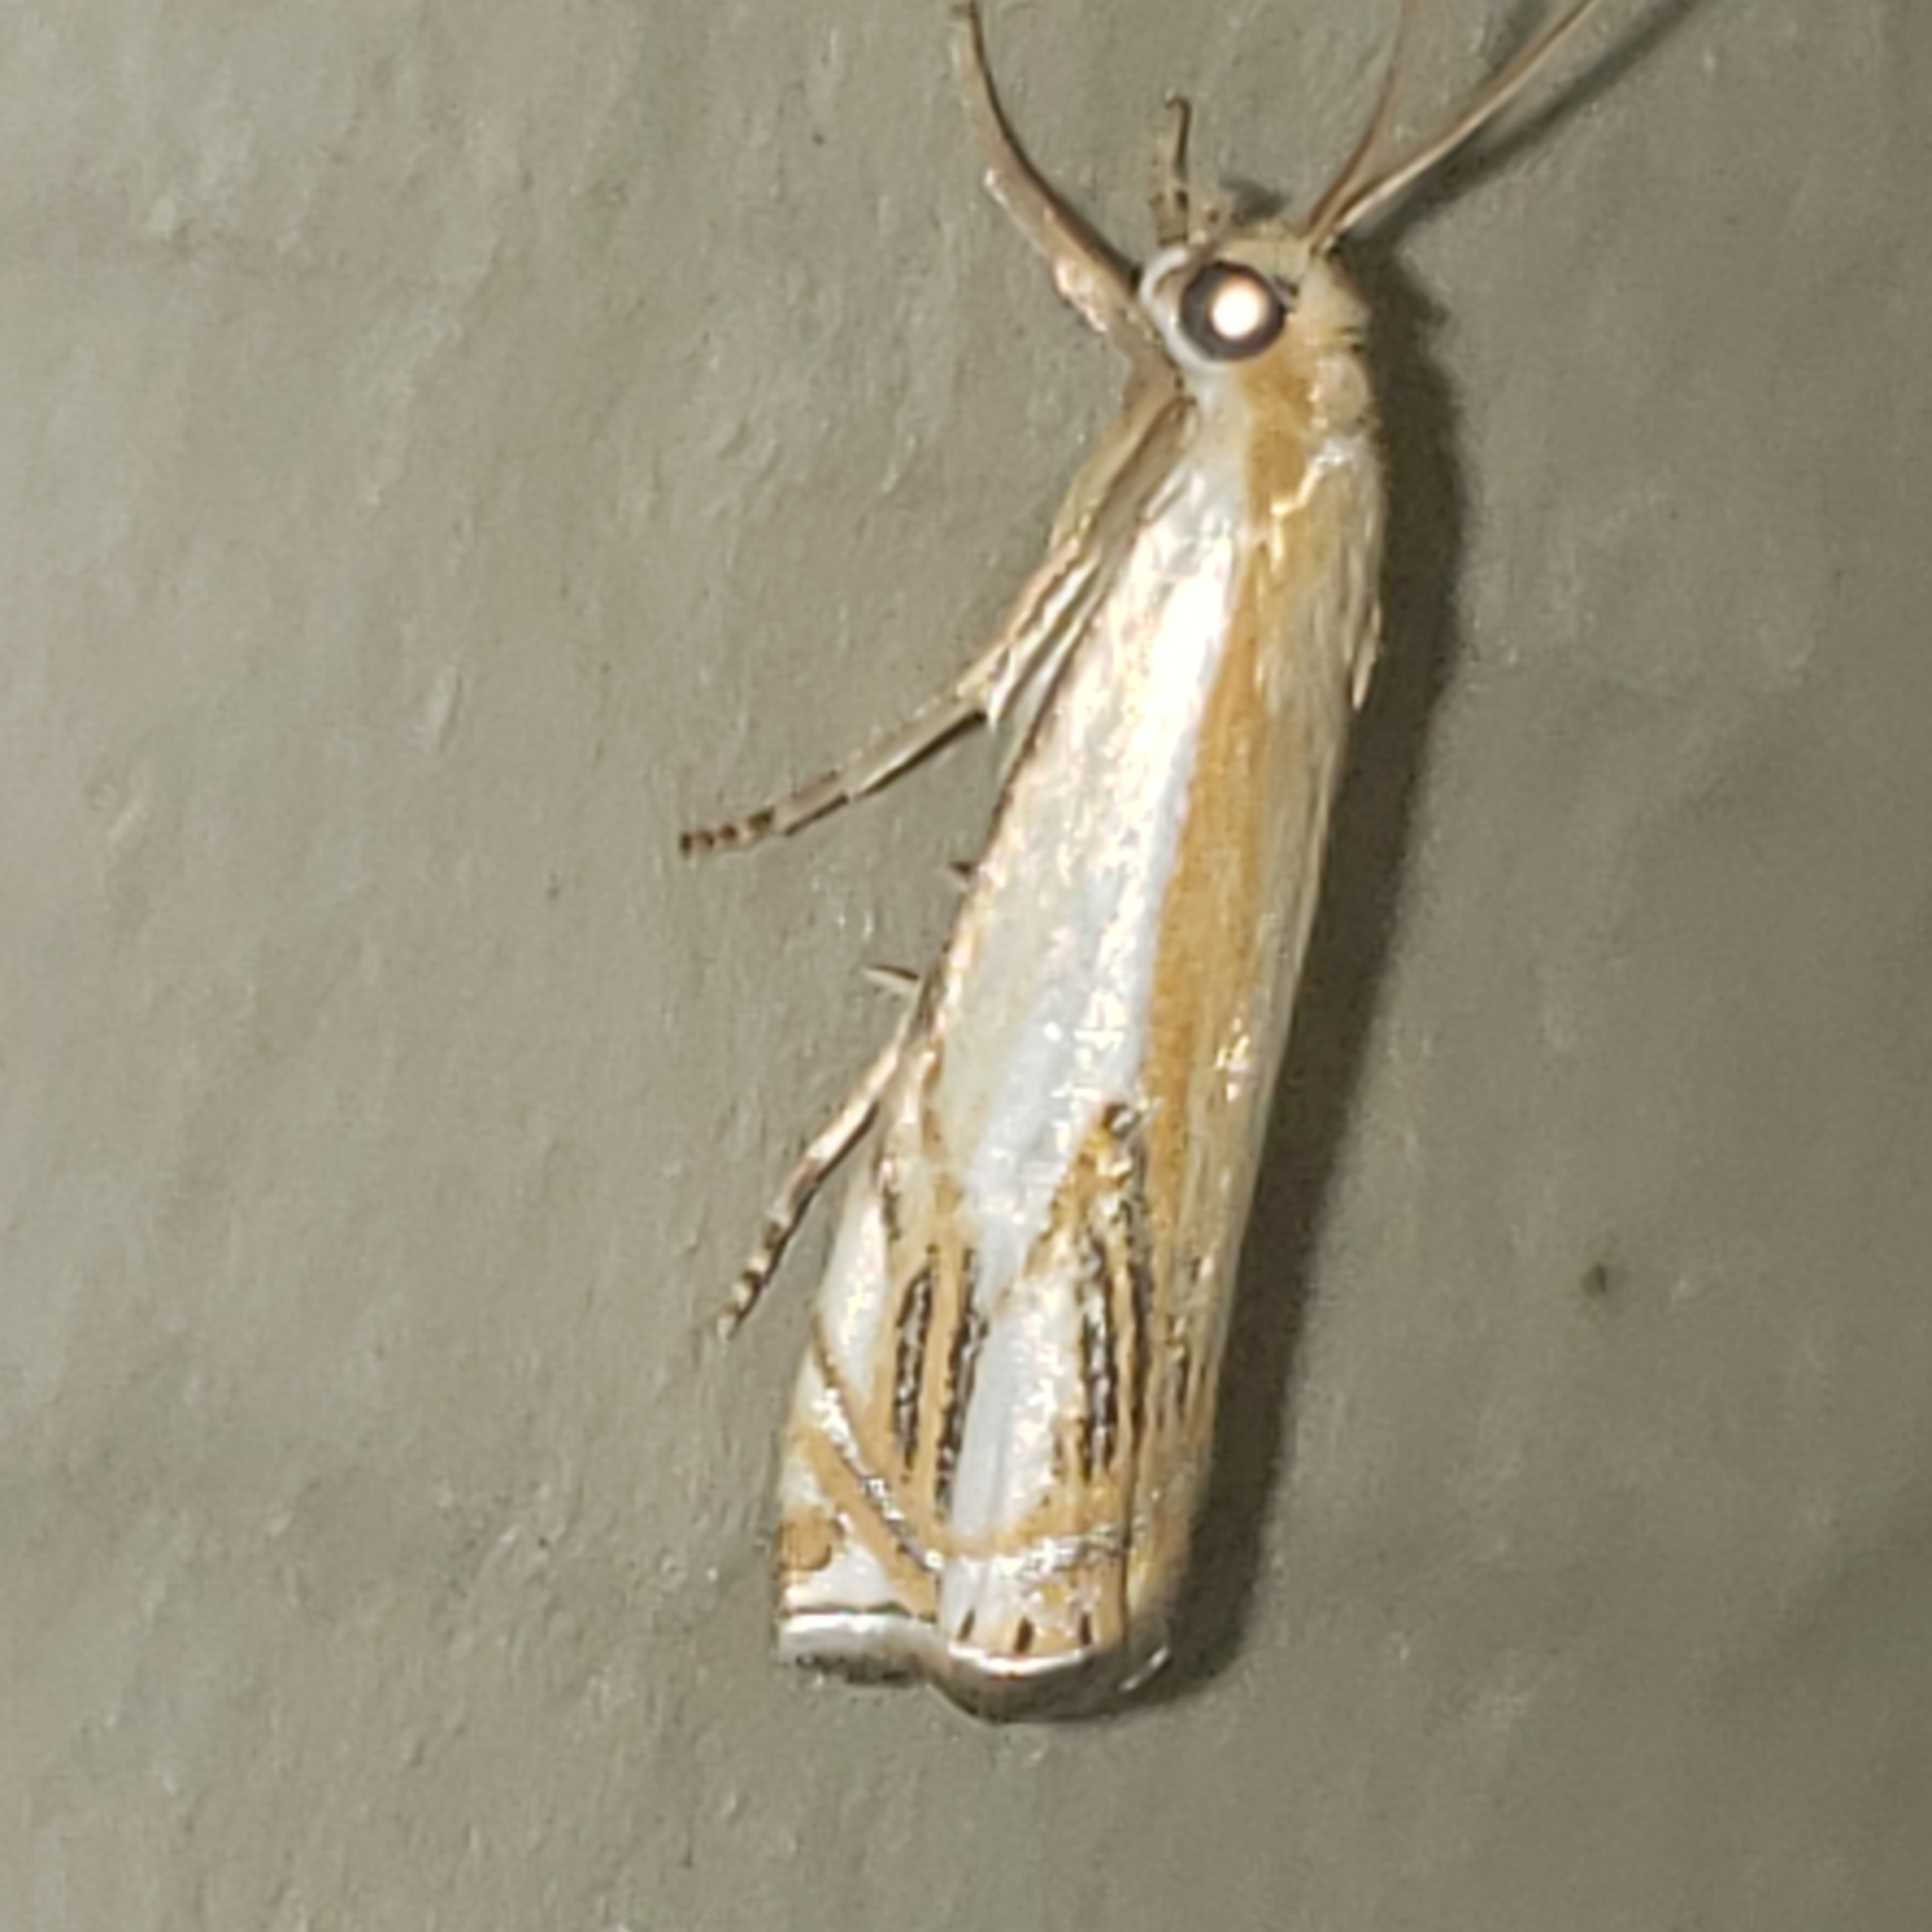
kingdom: Animalia
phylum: Arthropoda
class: Insecta
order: Lepidoptera
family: Crambidae
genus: Crambus
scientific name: Crambus agitatellus
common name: Double-banded grass-veneer
